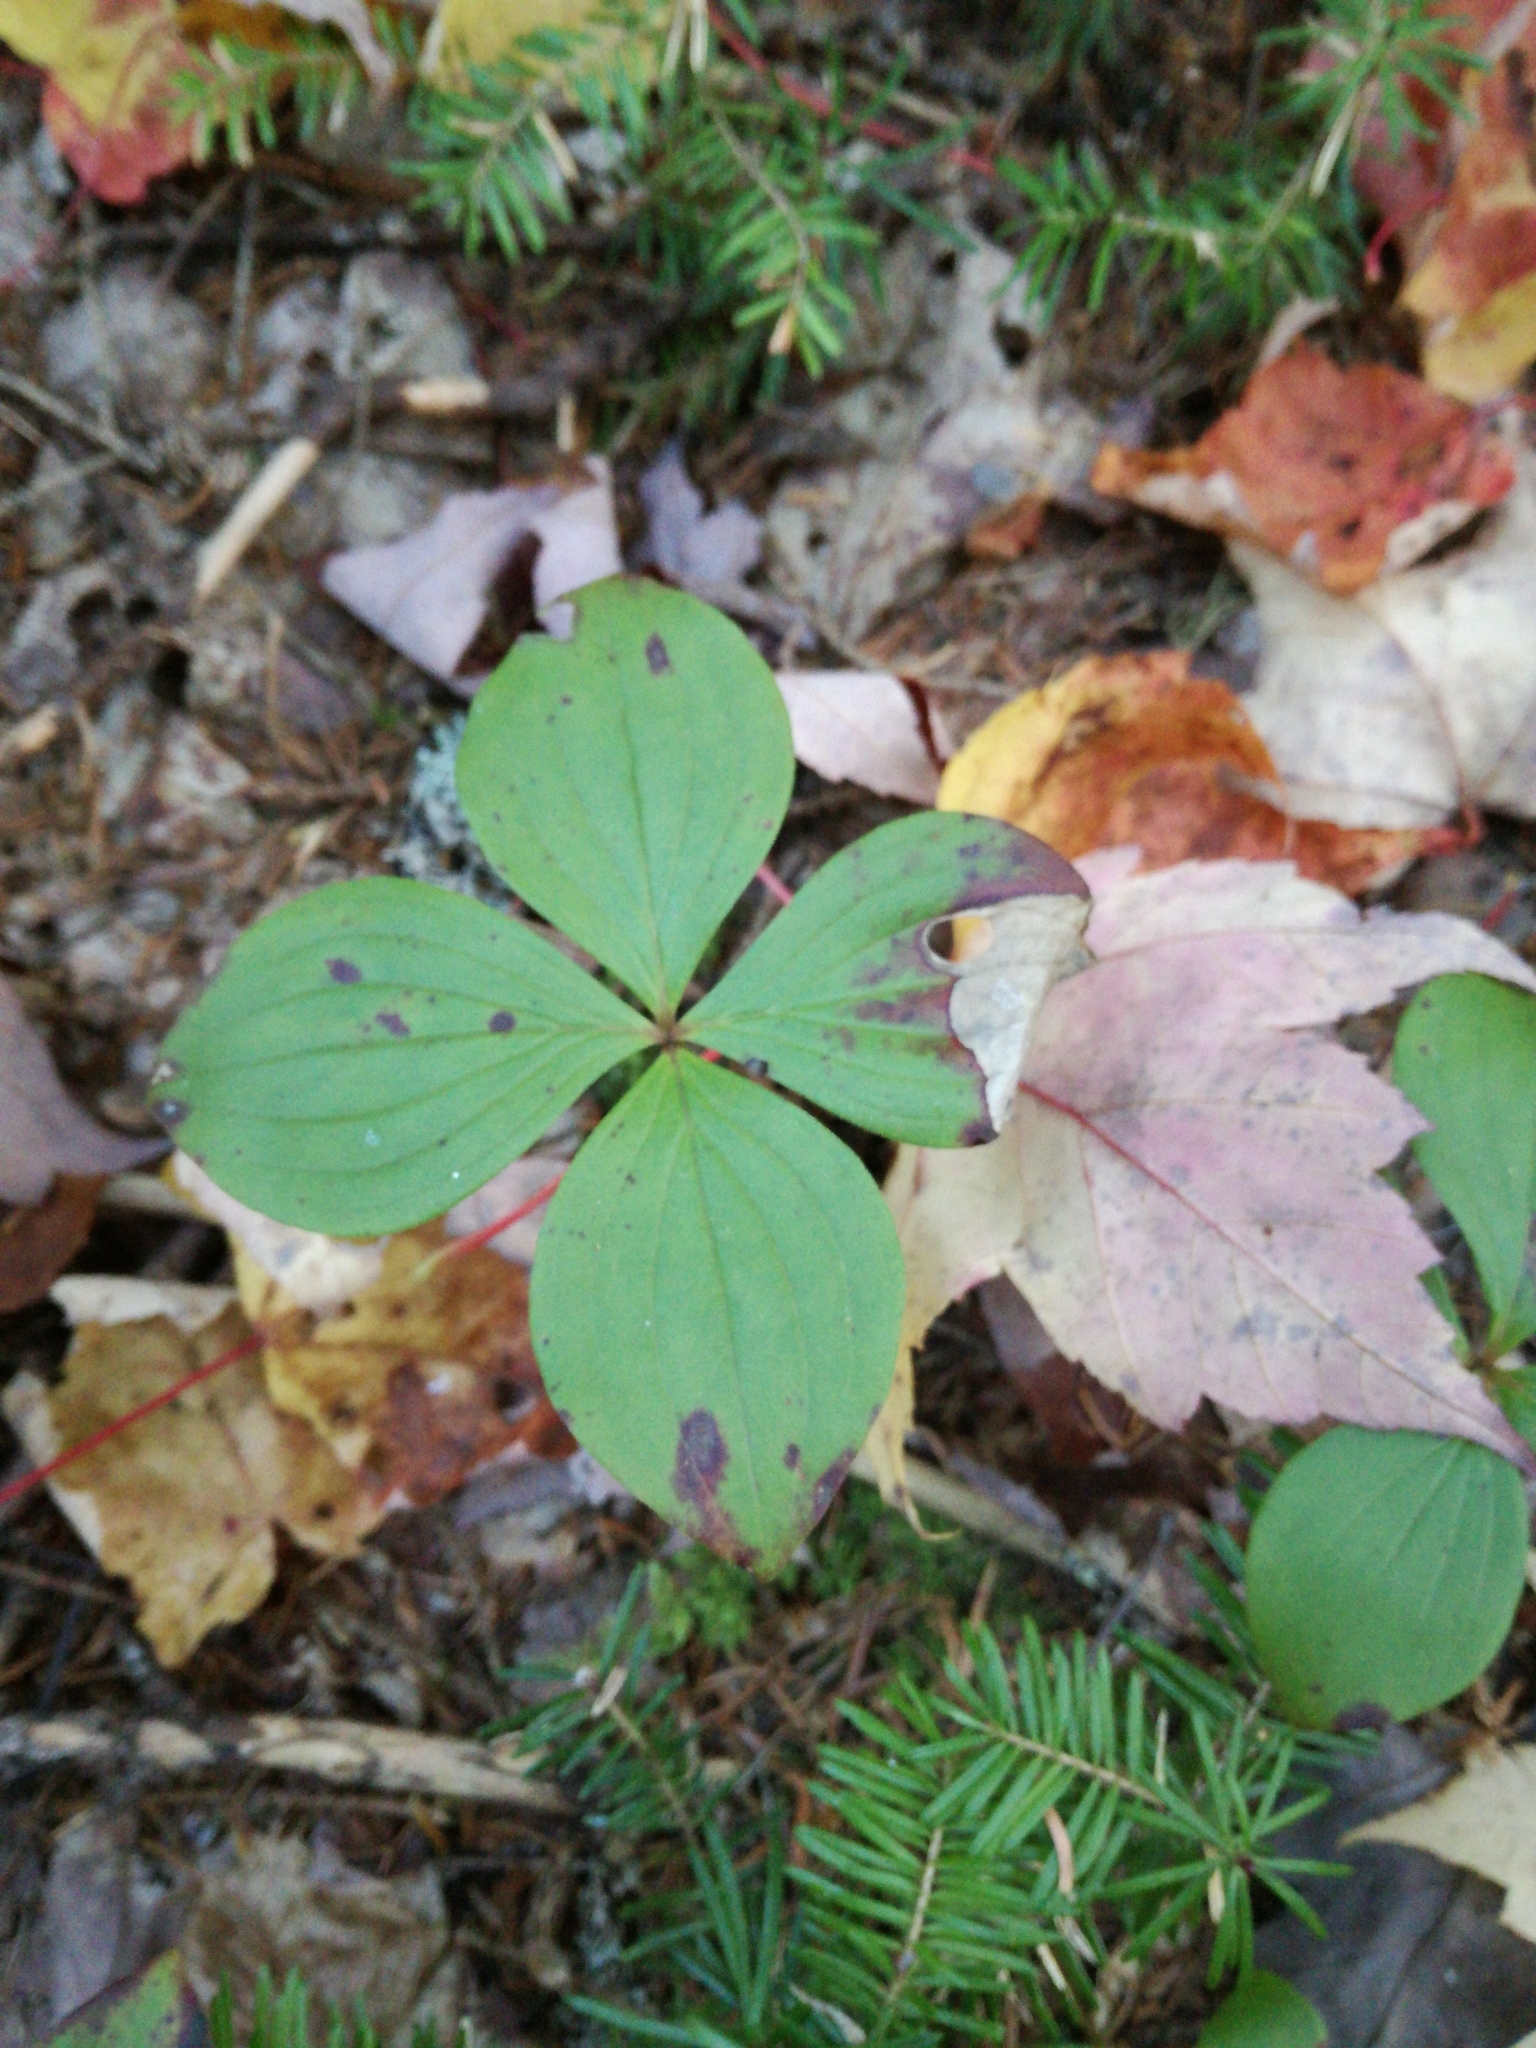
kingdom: Plantae
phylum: Tracheophyta
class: Magnoliopsida
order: Cornales
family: Cornaceae
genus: Cornus
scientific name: Cornus canadensis
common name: Creeping dogwood
